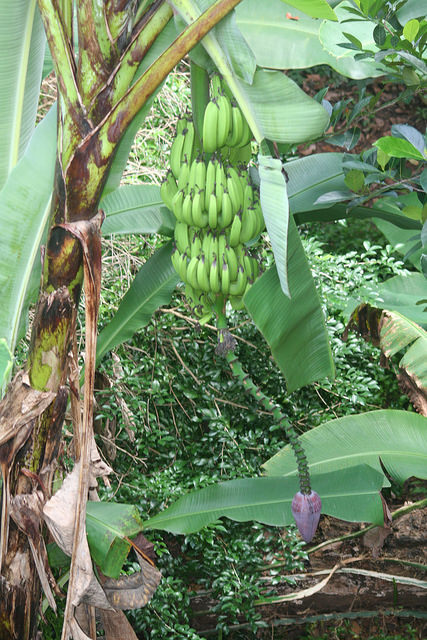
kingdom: Plantae
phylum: Tracheophyta
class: Liliopsida
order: Zingiberales
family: Musaceae
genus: Musa
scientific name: Musa acuminata
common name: Edible banana
